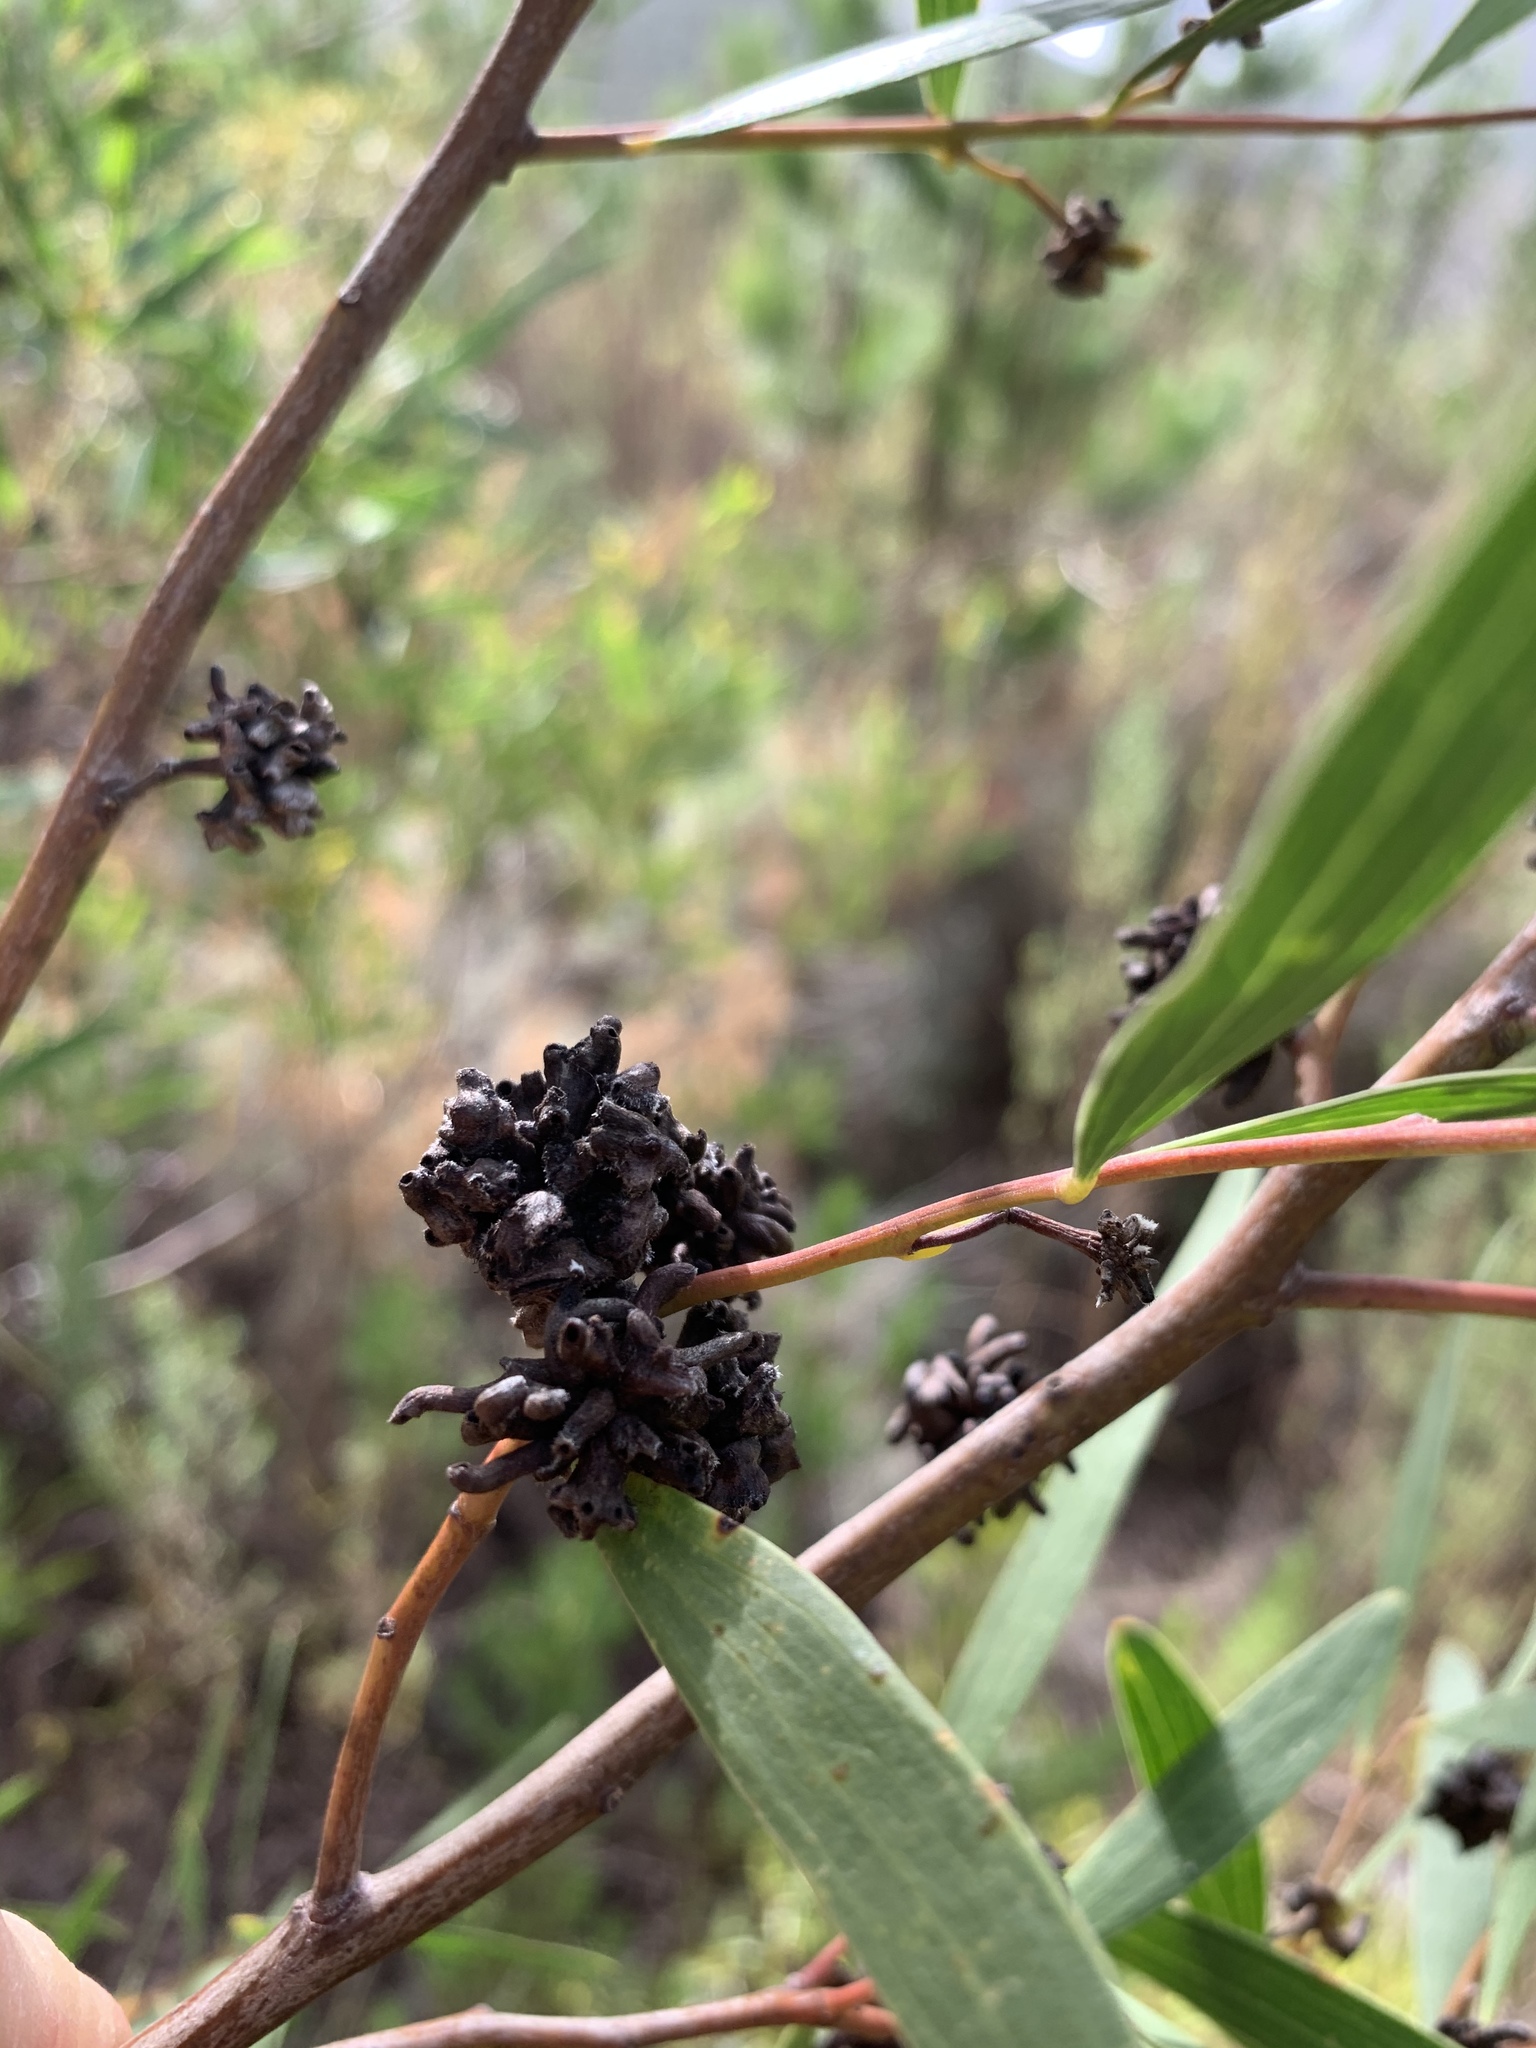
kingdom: Plantae
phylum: Tracheophyta
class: Magnoliopsida
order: Fabales
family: Fabaceae
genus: Acacia
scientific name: Acacia cyclops
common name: Coastal wattle
